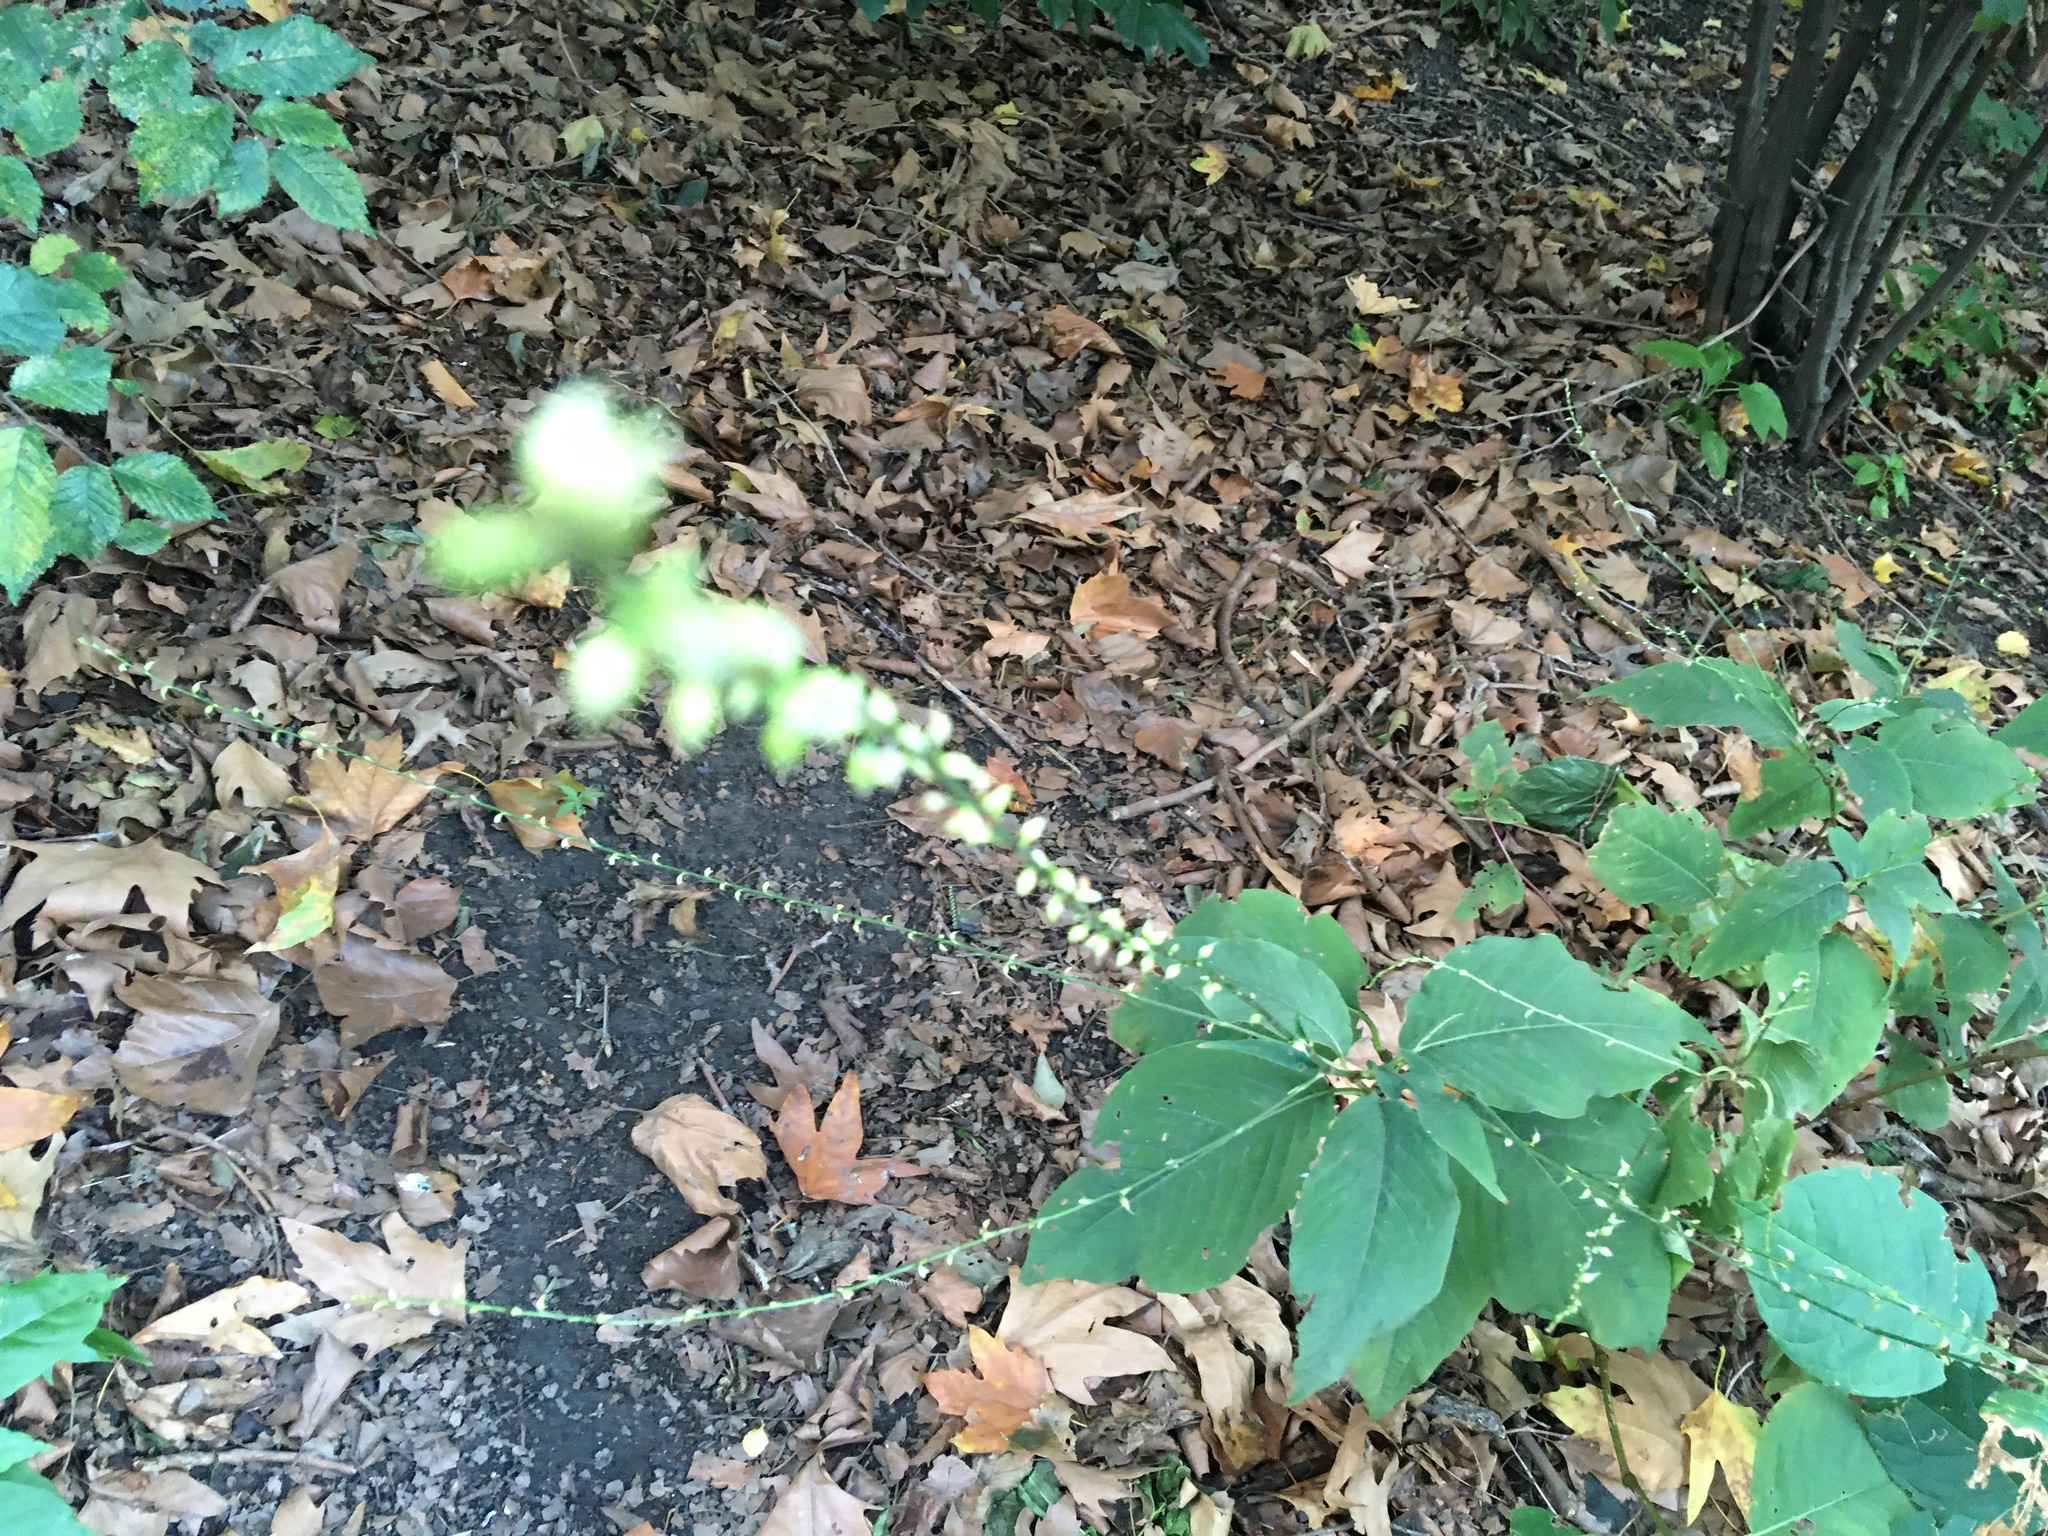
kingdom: Plantae
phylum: Tracheophyta
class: Magnoliopsida
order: Caryophyllales
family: Polygonaceae
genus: Persicaria
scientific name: Persicaria virginiana
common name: Jumpseed
